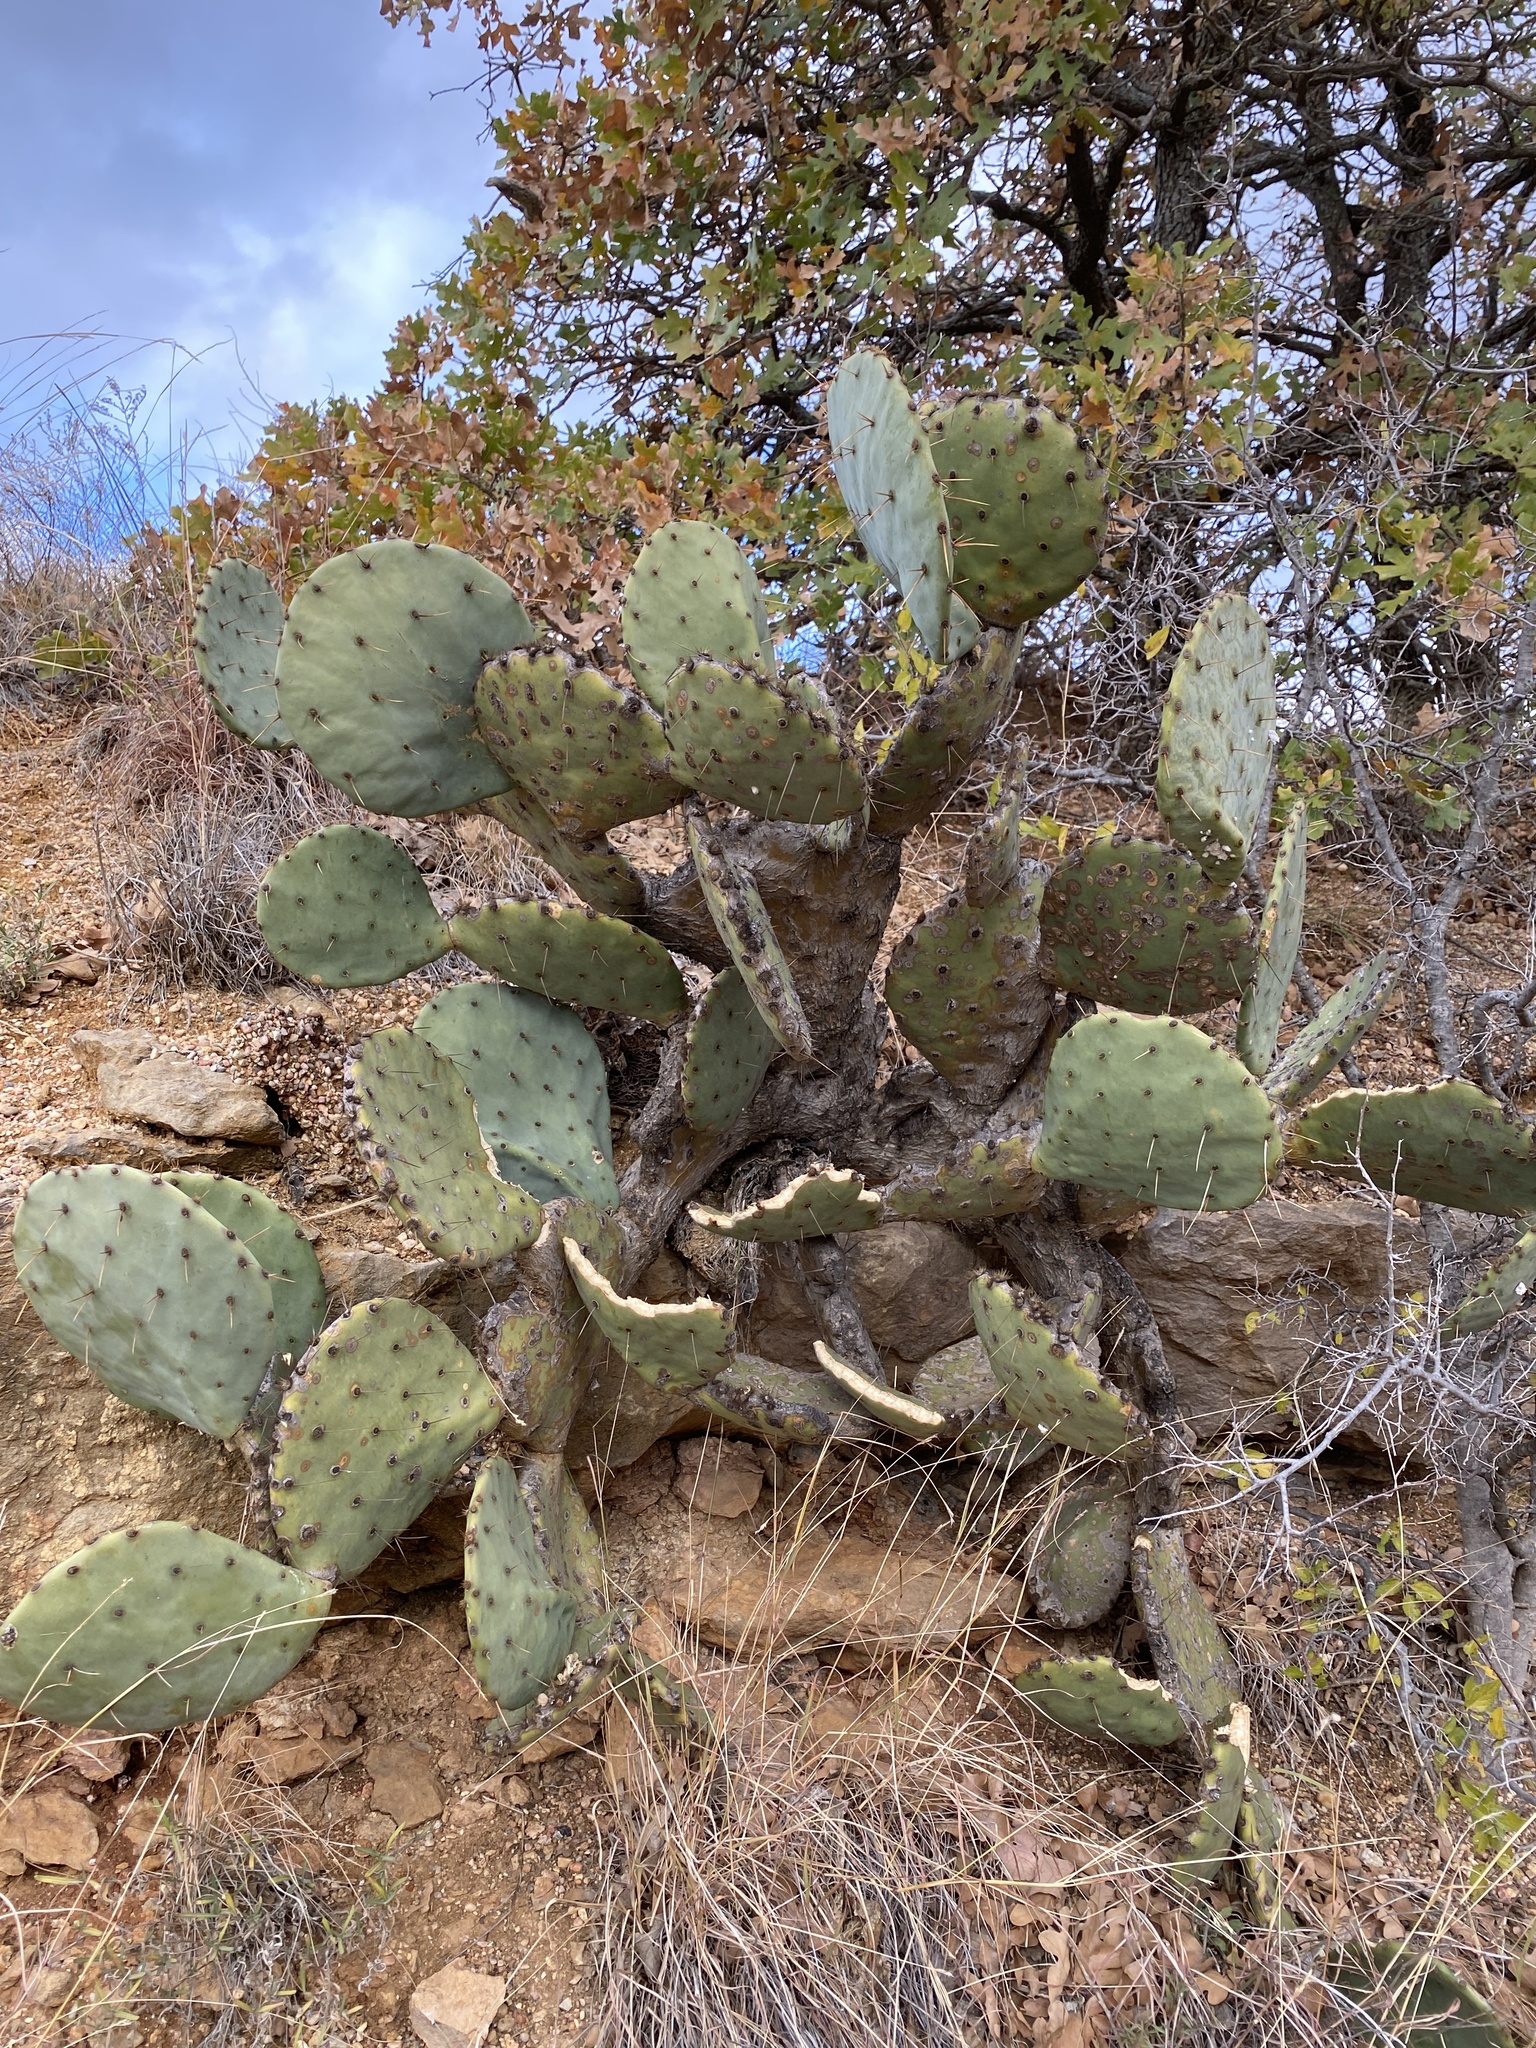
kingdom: Plantae
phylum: Tracheophyta
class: Magnoliopsida
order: Caryophyllales
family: Cactaceae
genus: Opuntia
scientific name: Opuntia engelmannii
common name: Cactus-apple
